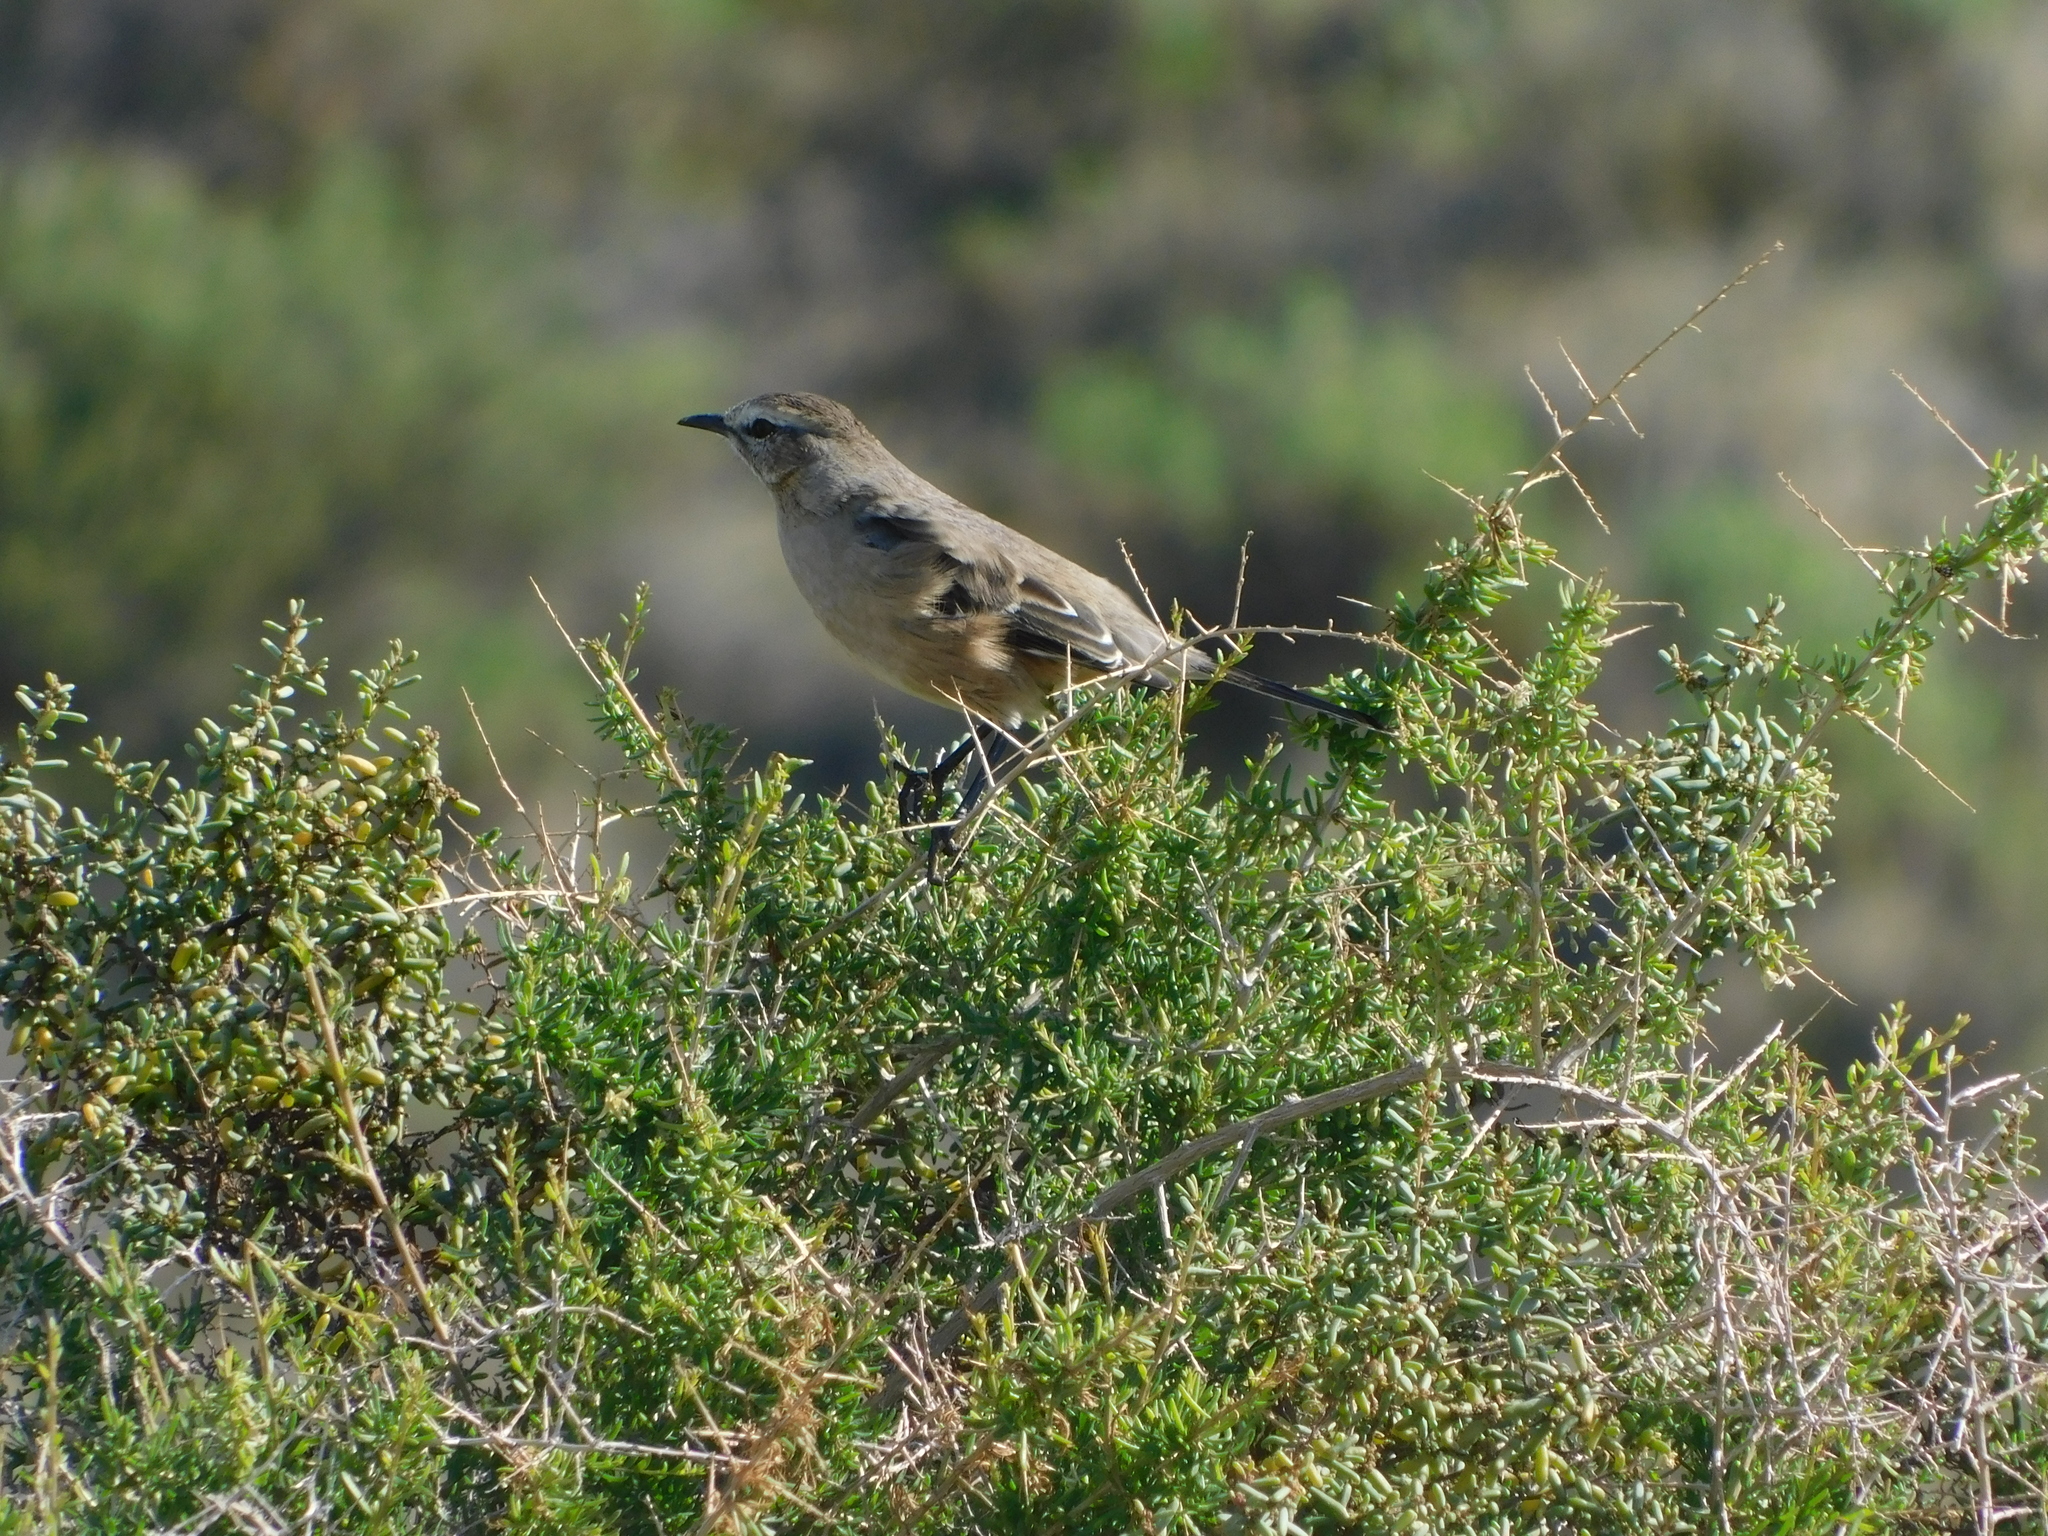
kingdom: Animalia
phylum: Chordata
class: Aves
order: Passeriformes
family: Mimidae
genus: Mimus
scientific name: Mimus patagonicus
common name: Patagonian mockingbird
